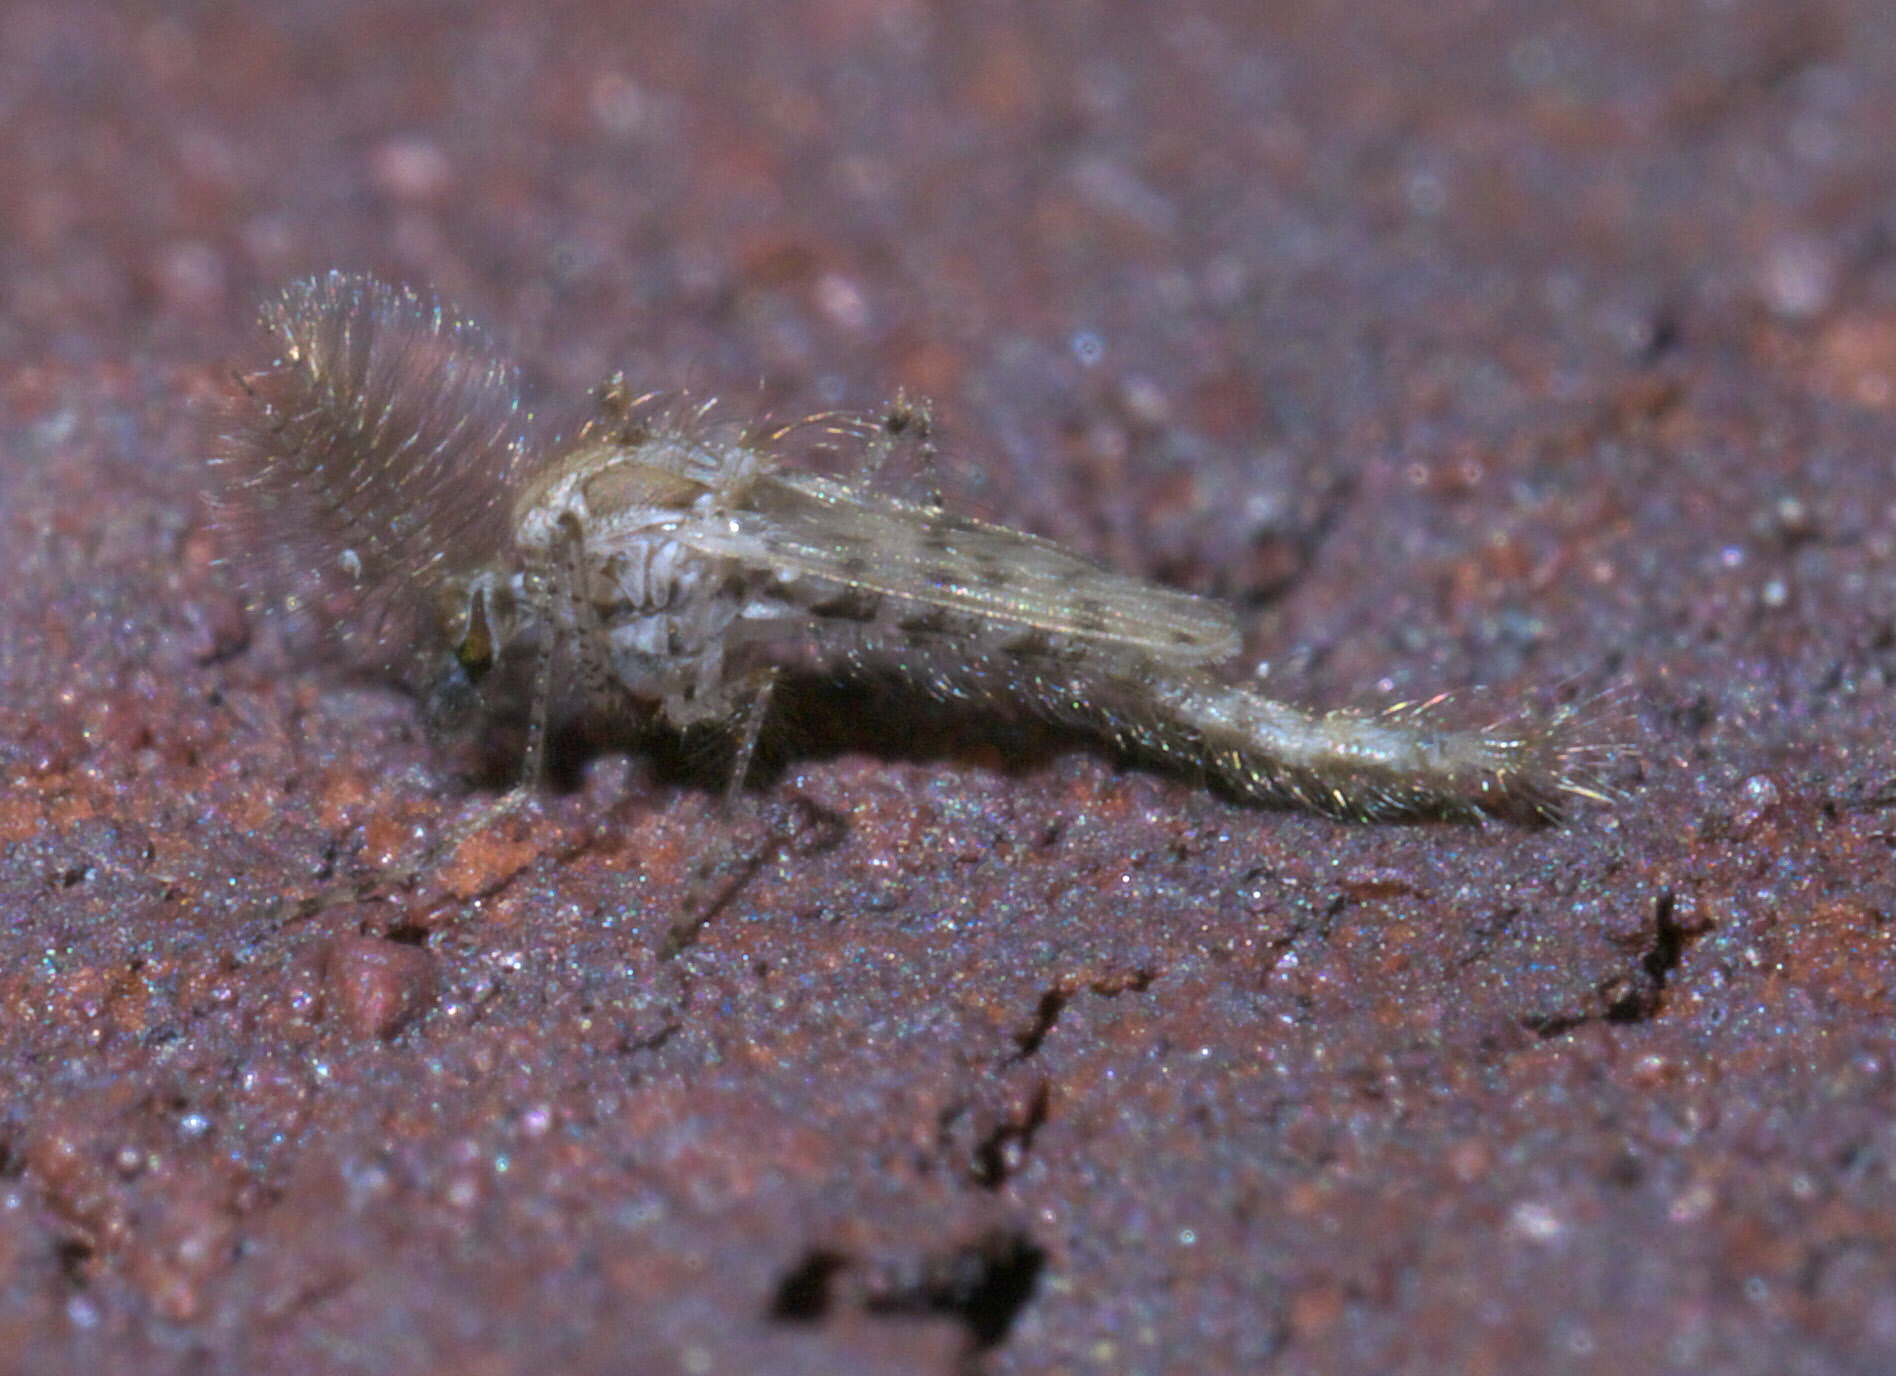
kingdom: Animalia
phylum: Arthropoda
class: Insecta
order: Diptera
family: Chaoboridae
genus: Chaoborus
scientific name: Chaoborus punctipennis
